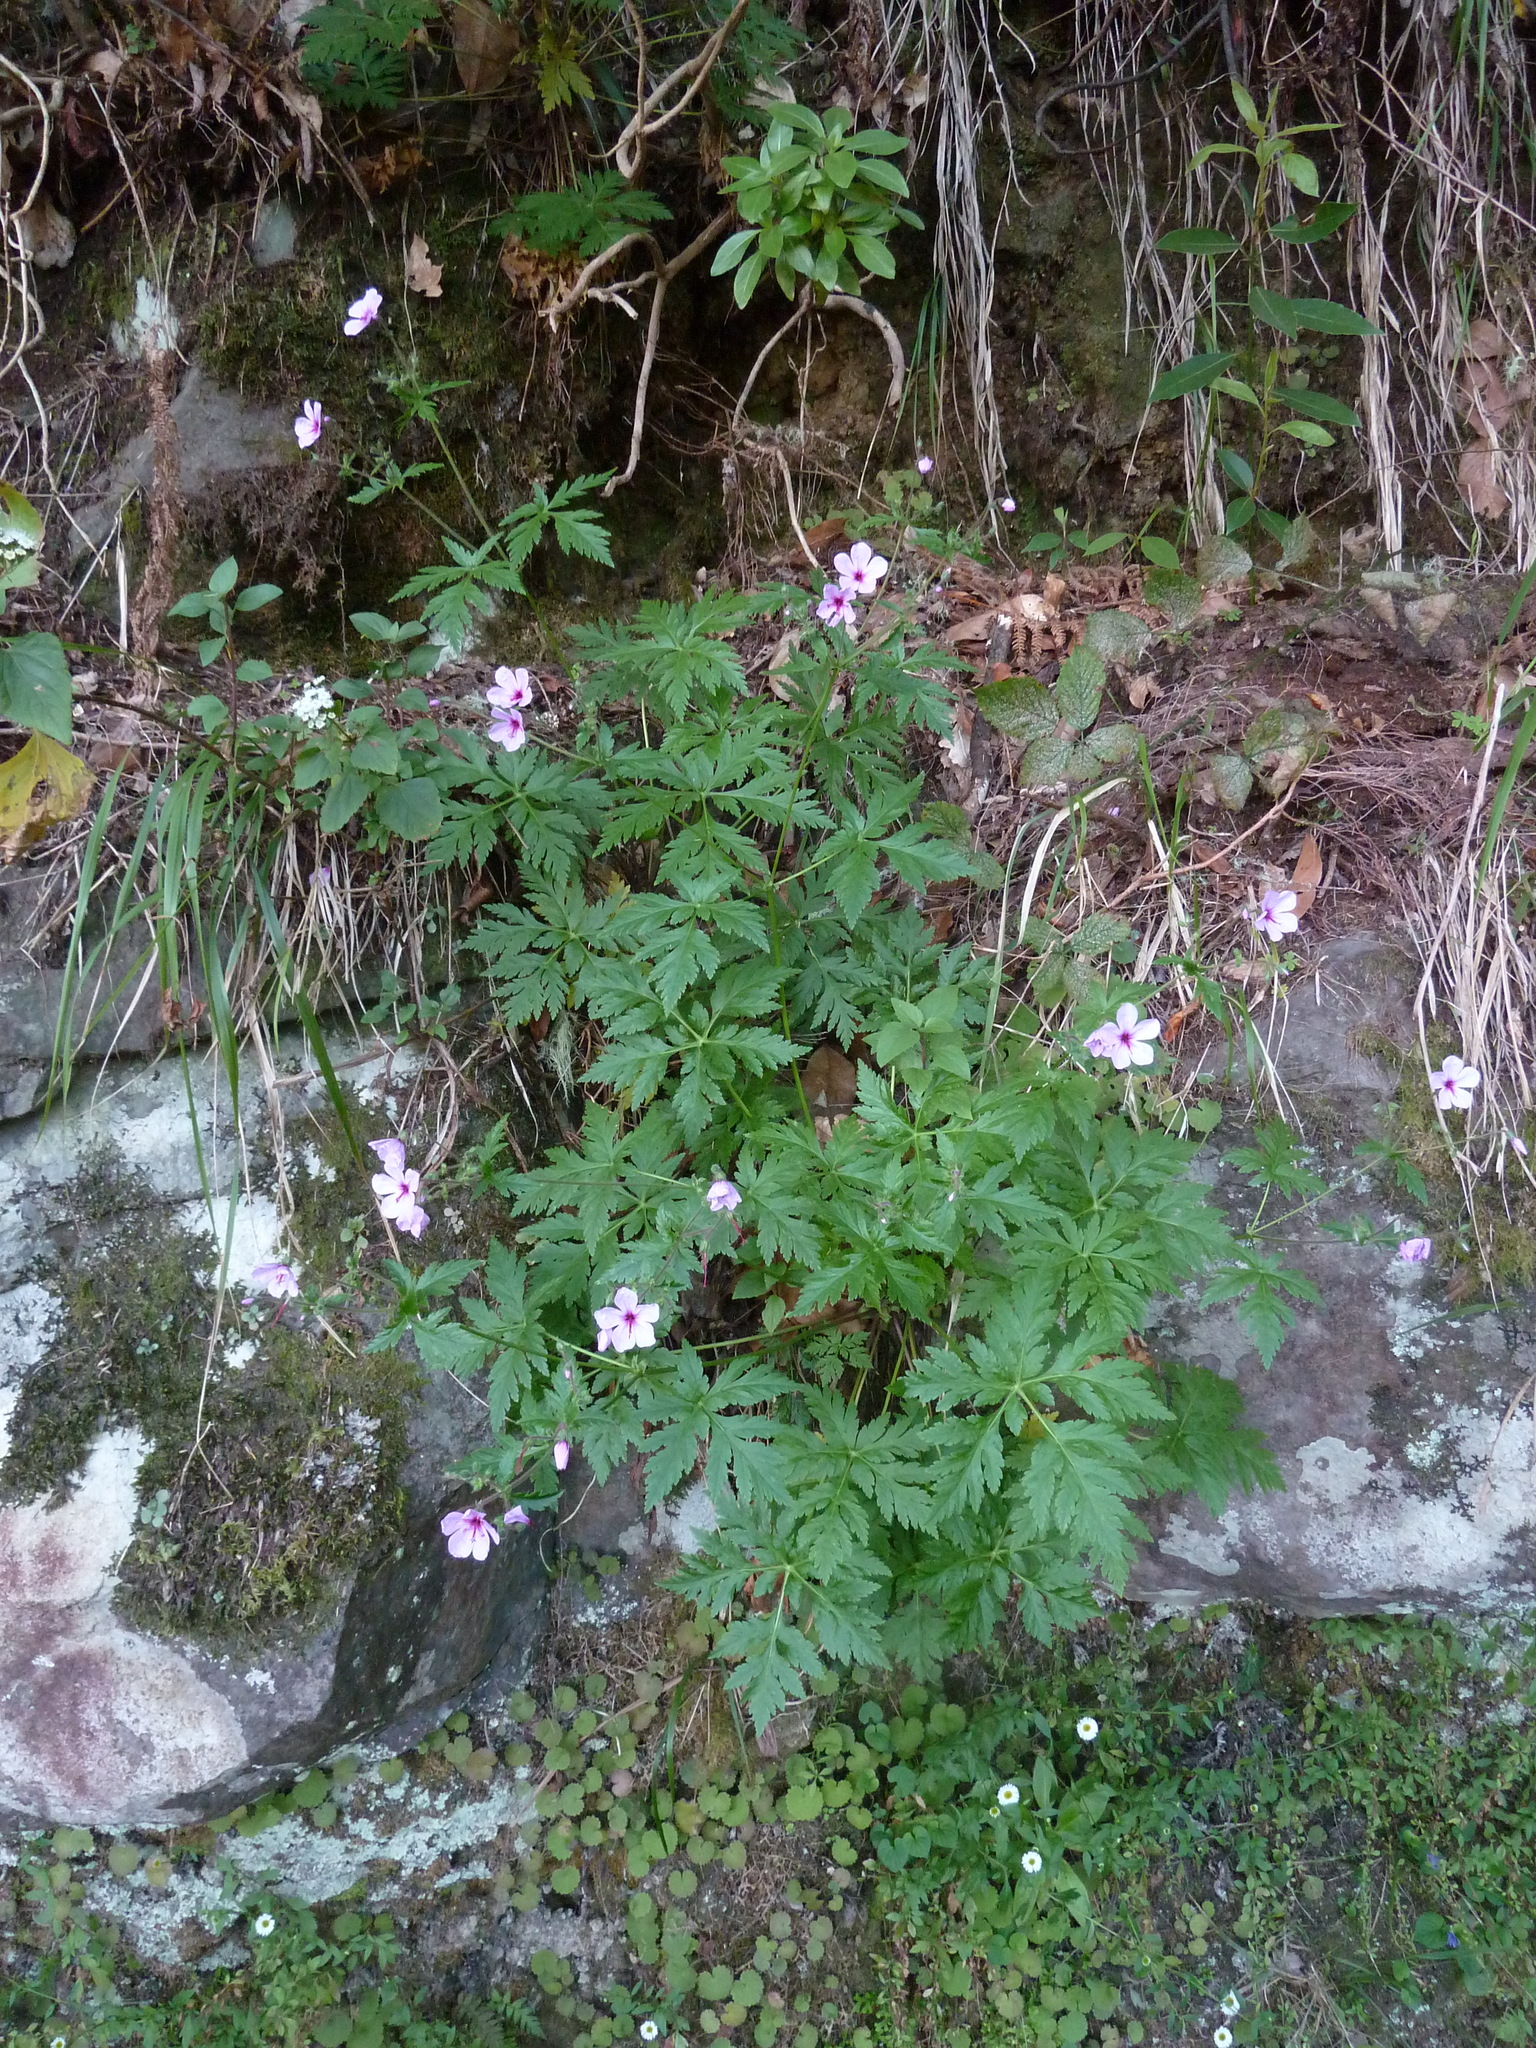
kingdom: Plantae
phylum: Tracheophyta
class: Magnoliopsida
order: Geraniales
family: Geraniaceae
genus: Geranium
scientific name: Geranium palmatum
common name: Canary island geranium
